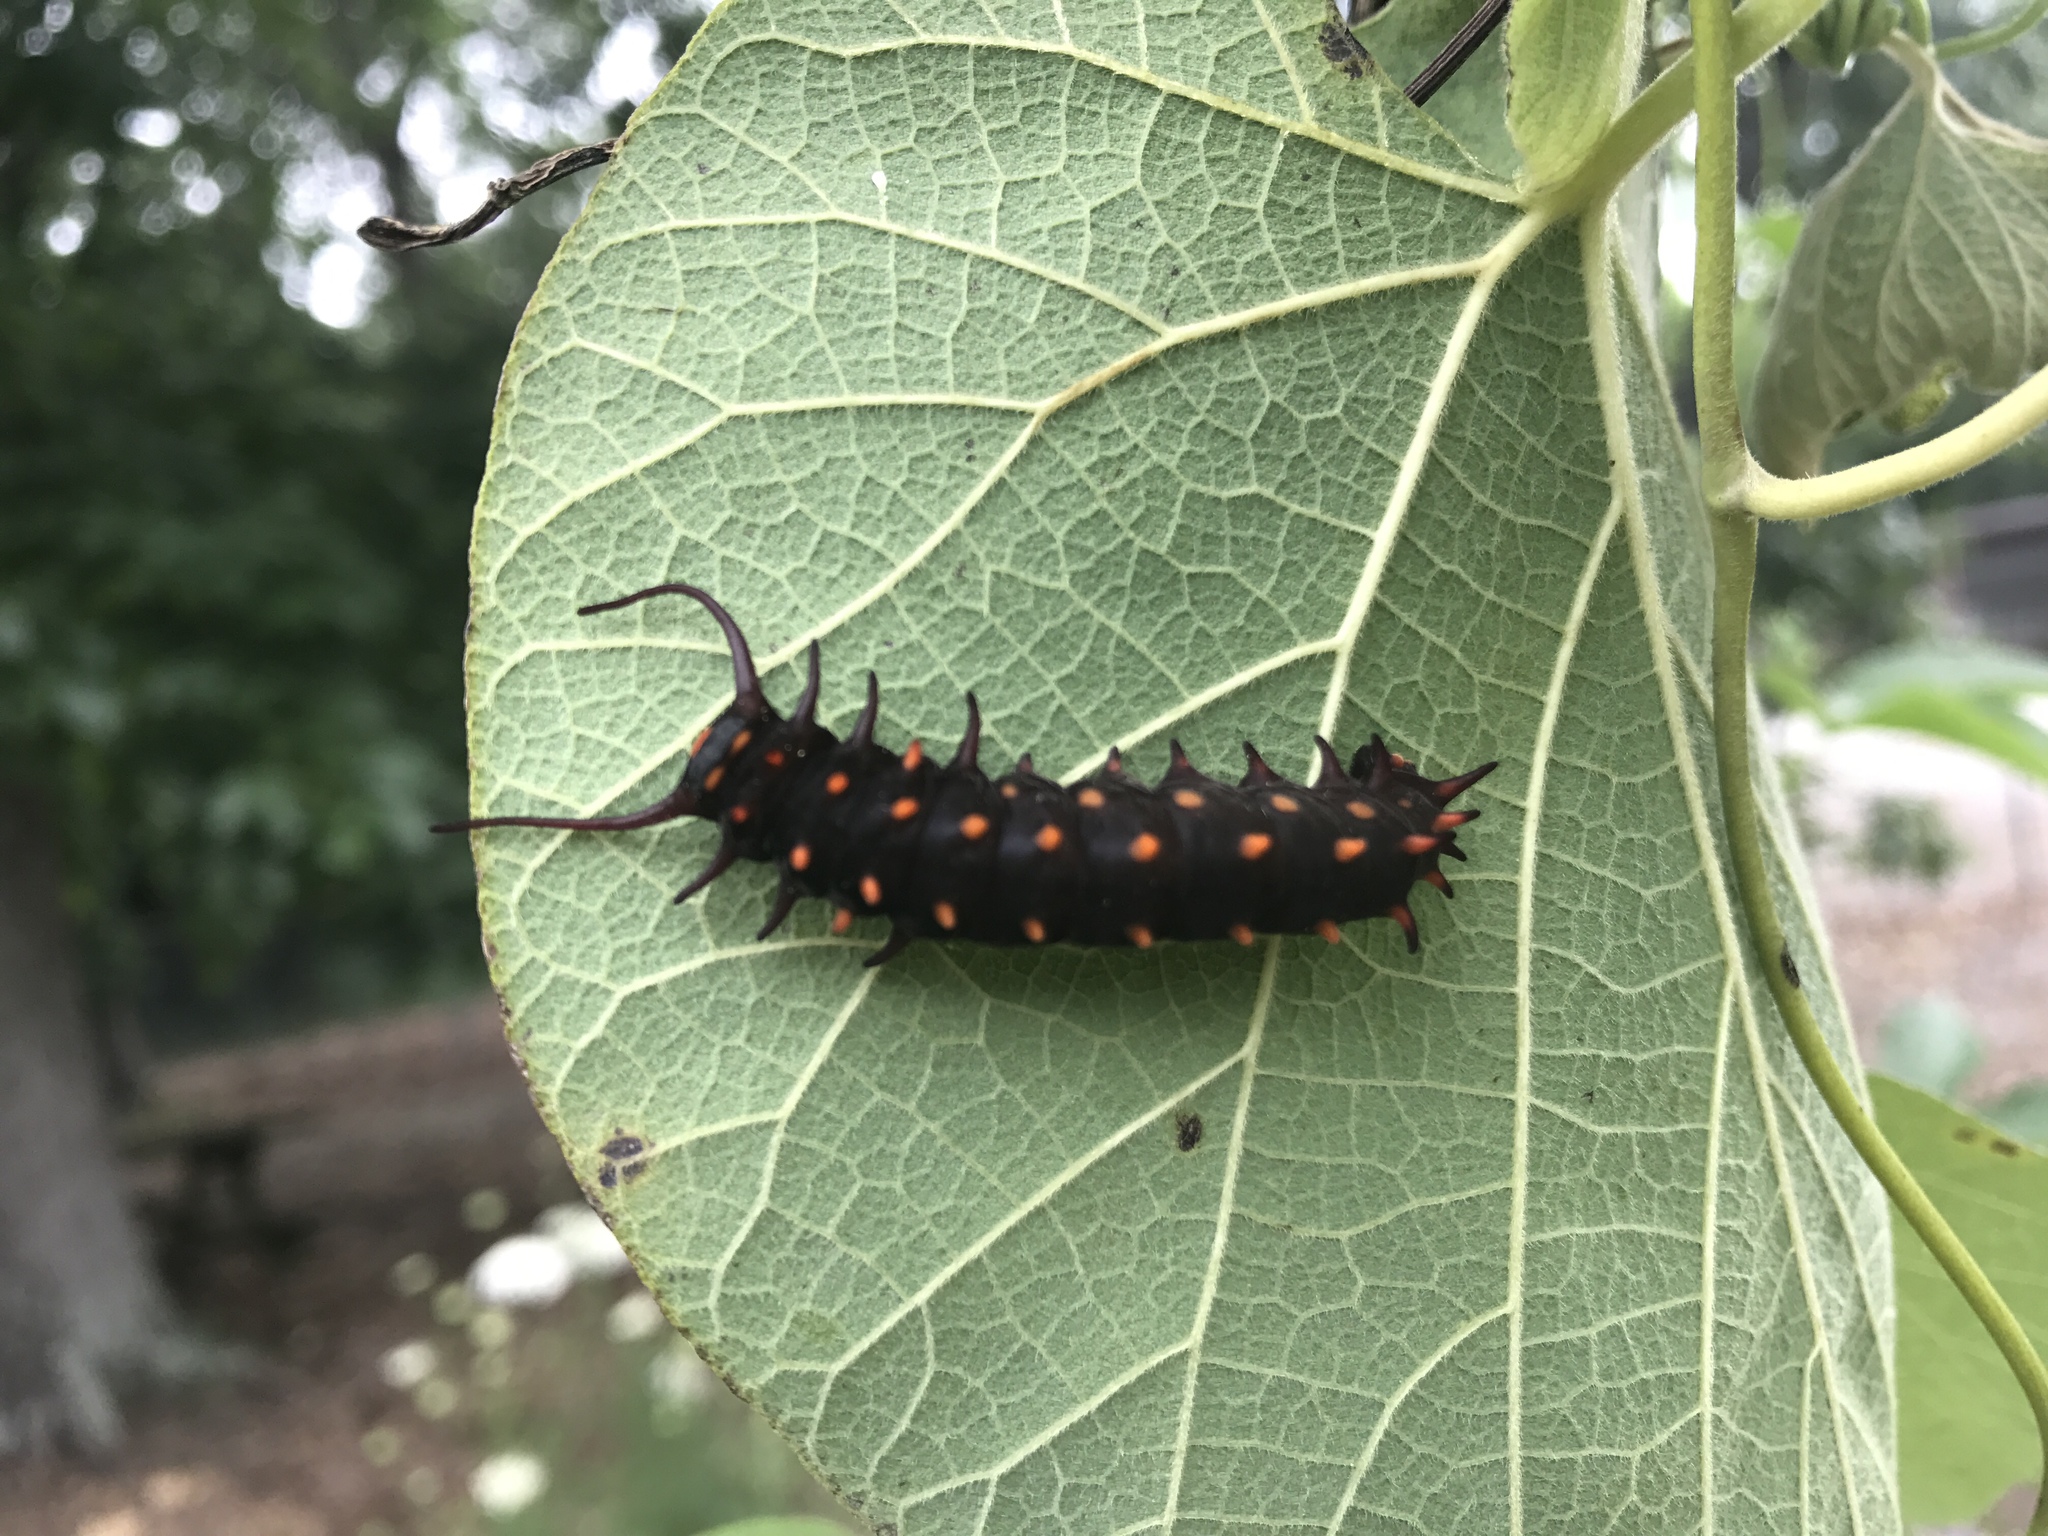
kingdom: Animalia
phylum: Arthropoda
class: Insecta
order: Lepidoptera
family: Papilionidae
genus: Battus
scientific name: Battus philenor
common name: Pipevine swallowtail
